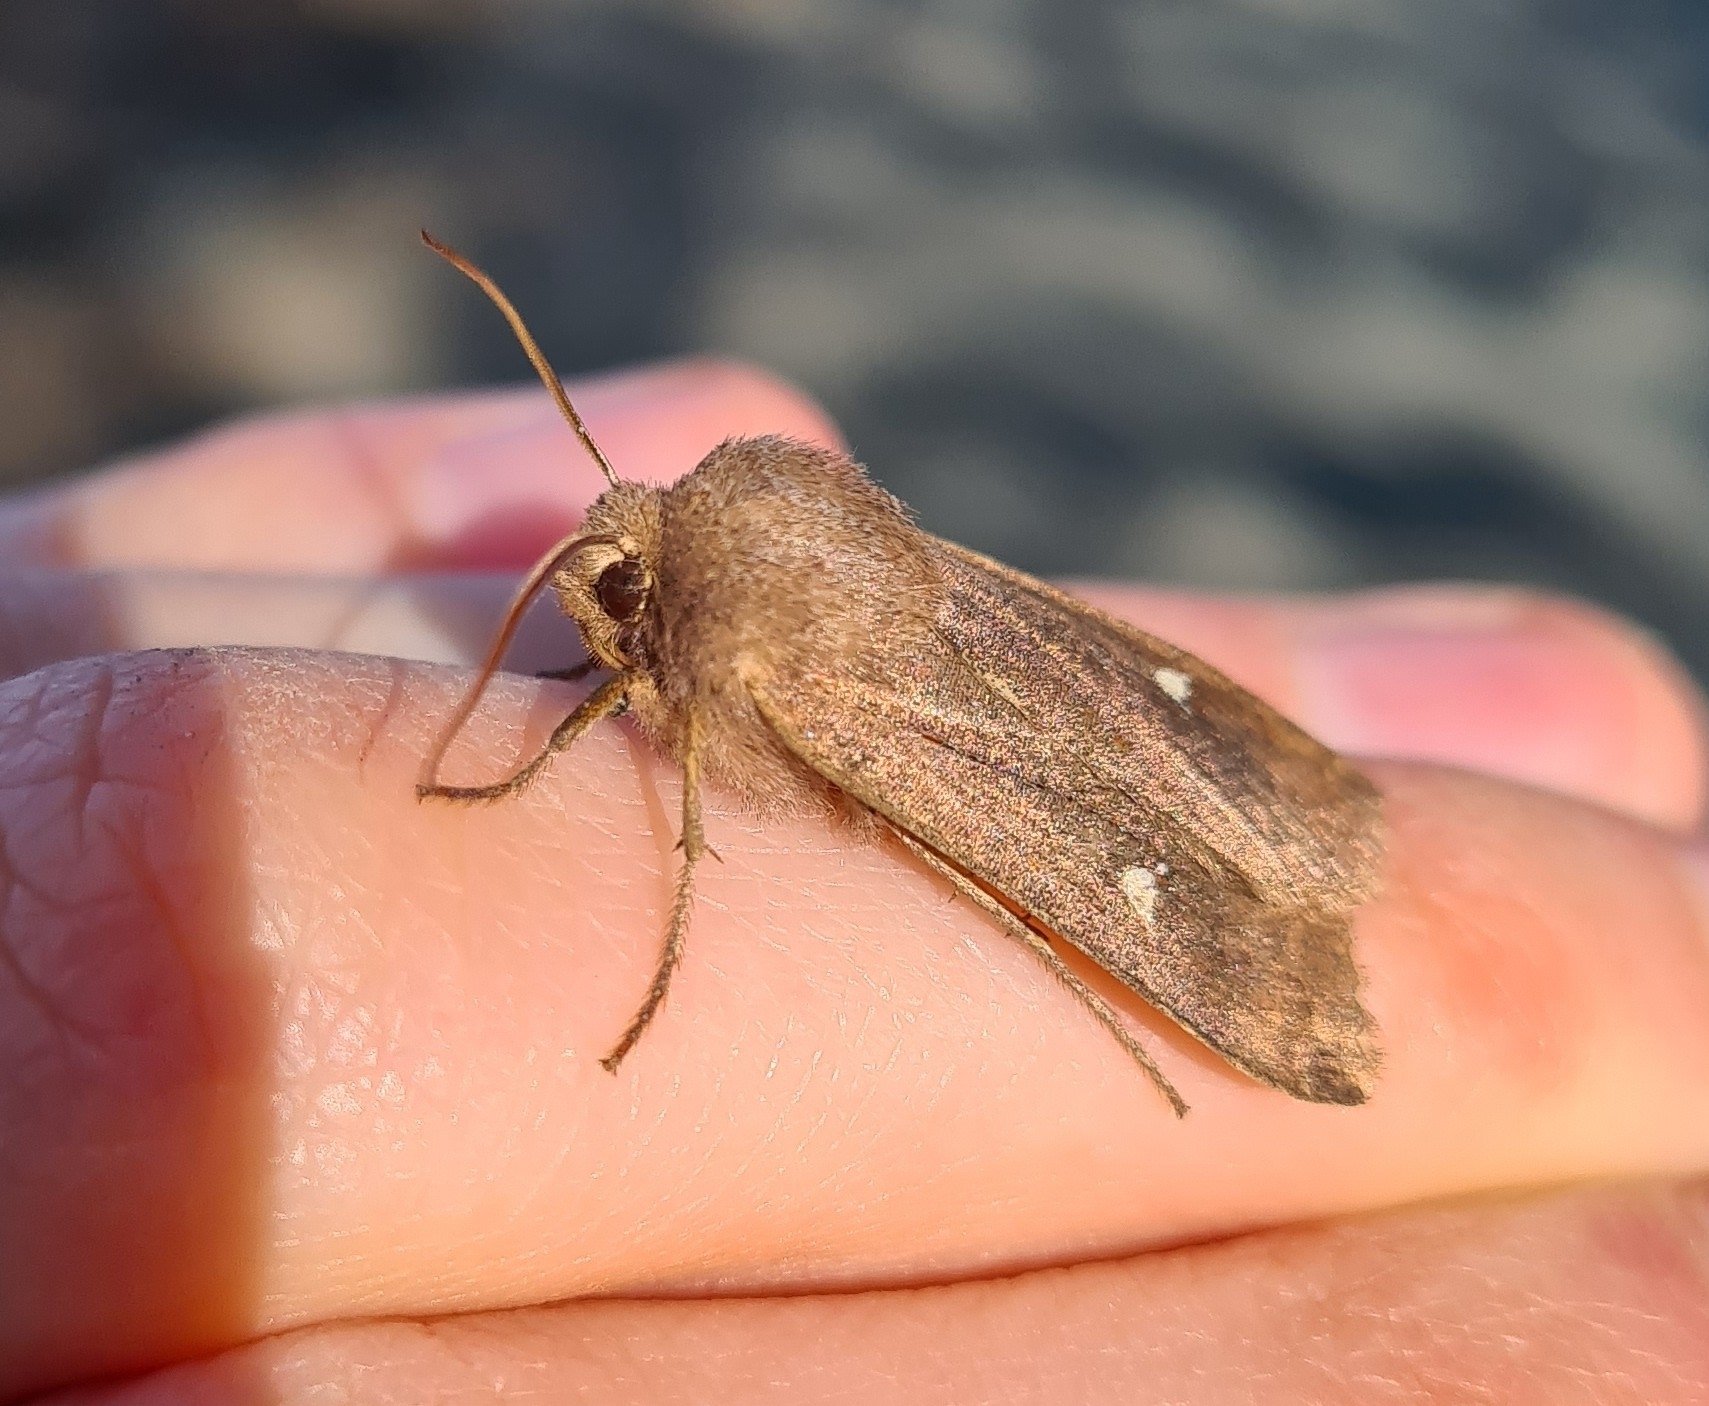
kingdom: Animalia
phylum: Arthropoda
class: Insecta
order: Lepidoptera
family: Noctuidae
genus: Eupsilia
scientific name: Eupsilia transversa
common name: Satellite
